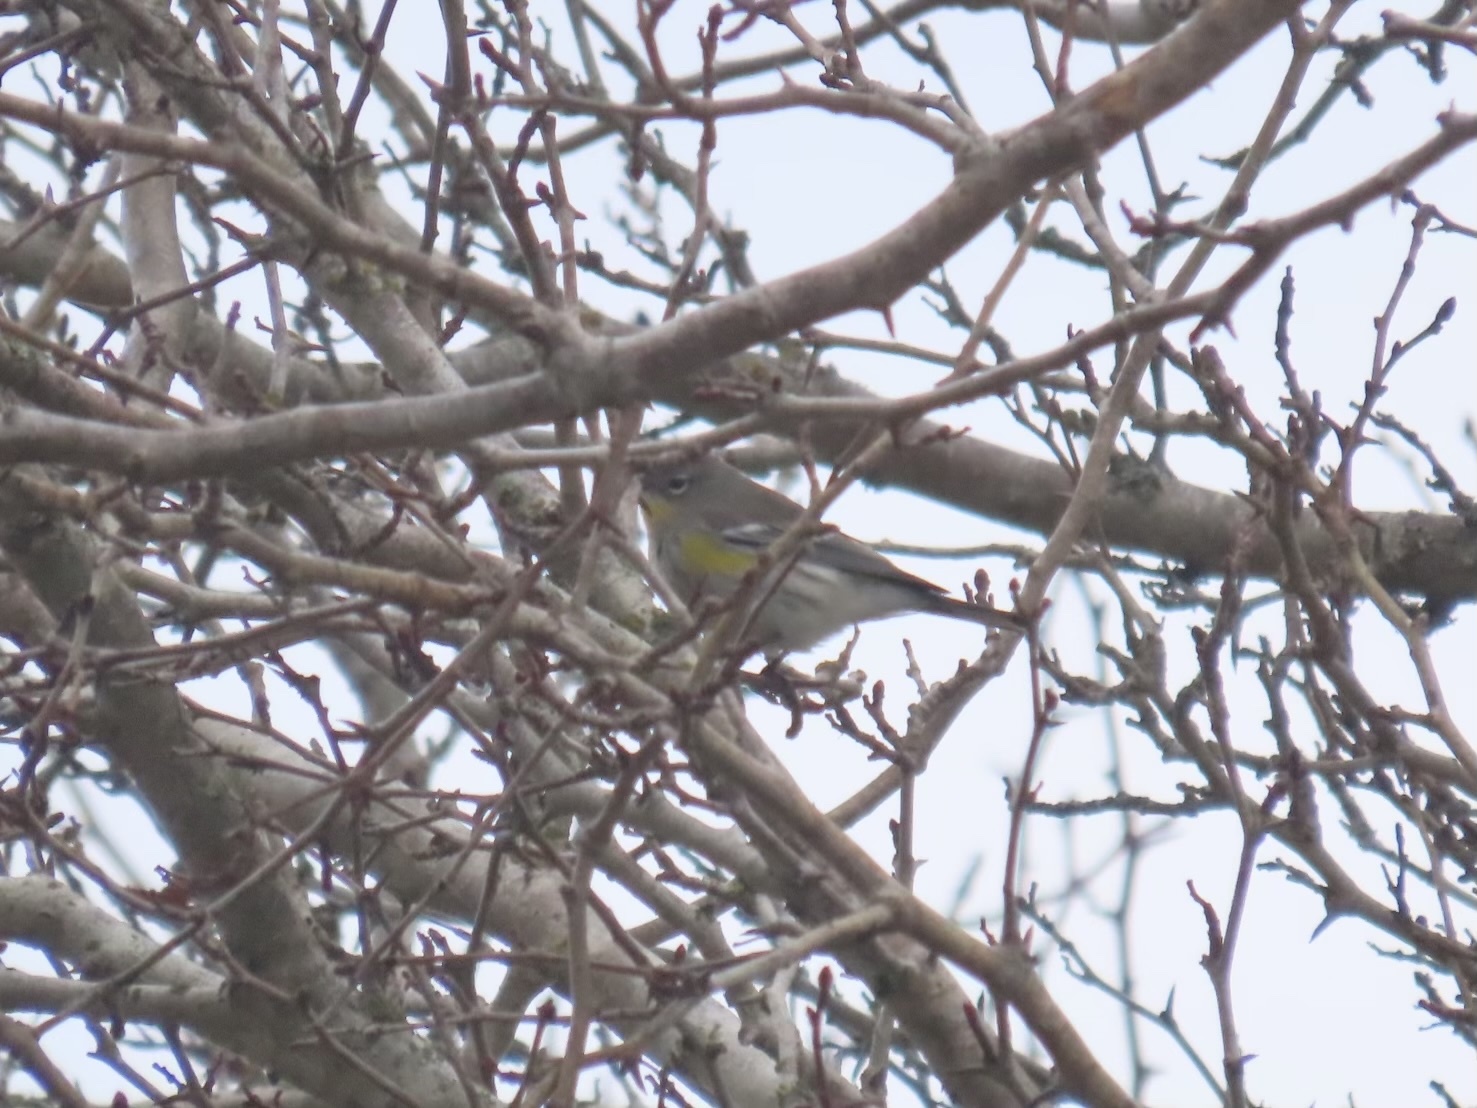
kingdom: Animalia
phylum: Chordata
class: Aves
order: Passeriformes
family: Parulidae
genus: Setophaga
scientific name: Setophaga coronata
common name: Myrtle warbler
